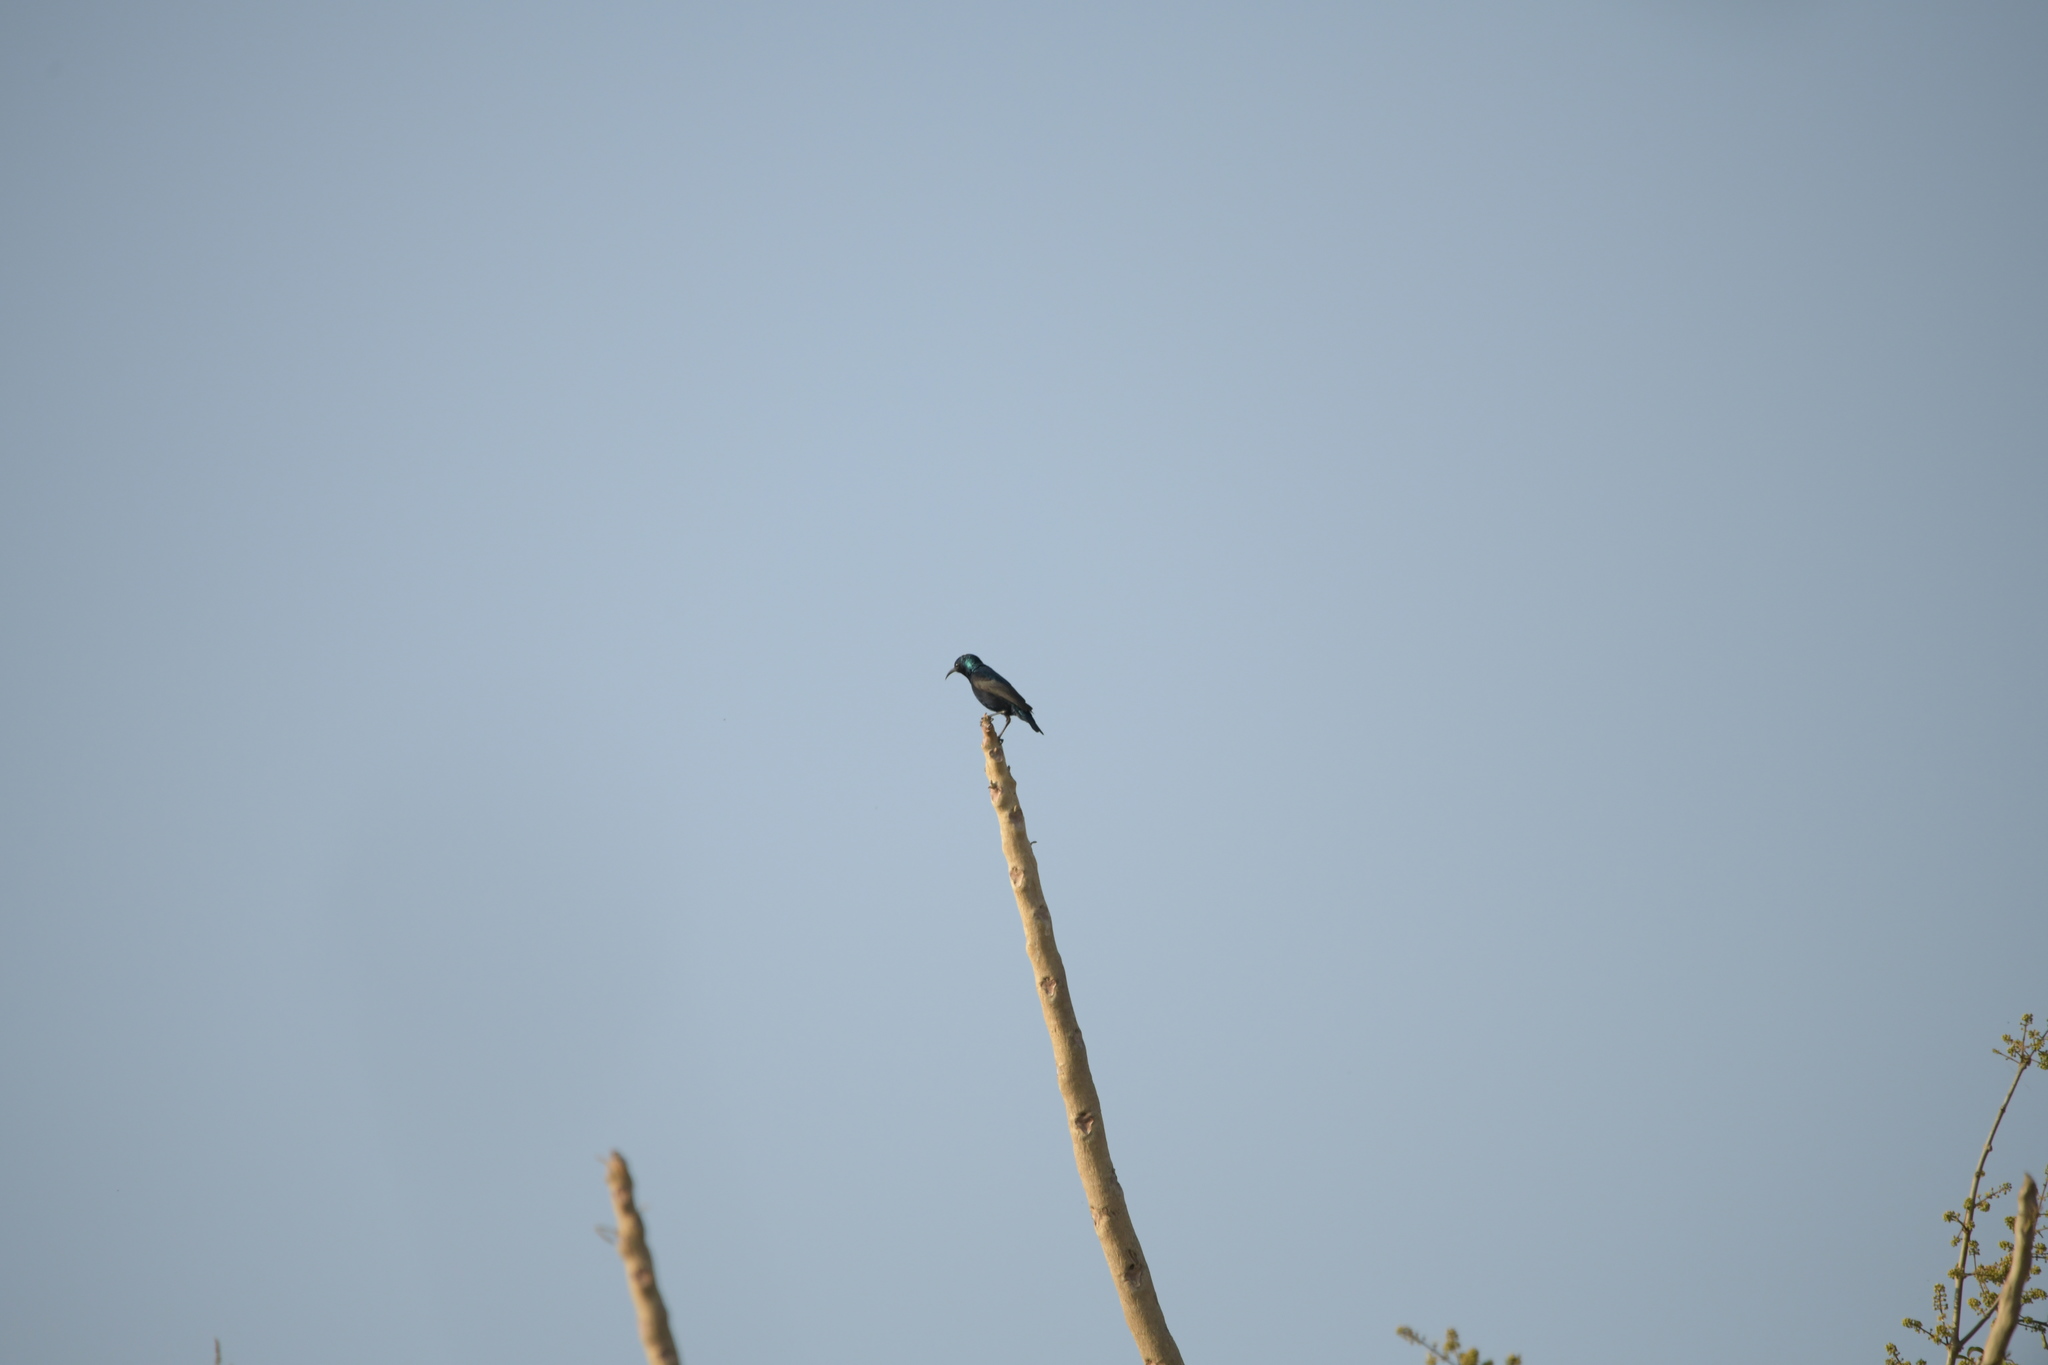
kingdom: Animalia
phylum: Chordata
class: Aves
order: Passeriformes
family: Nectariniidae
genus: Cinnyris
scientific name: Cinnyris asiaticus
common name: Purple sunbird
